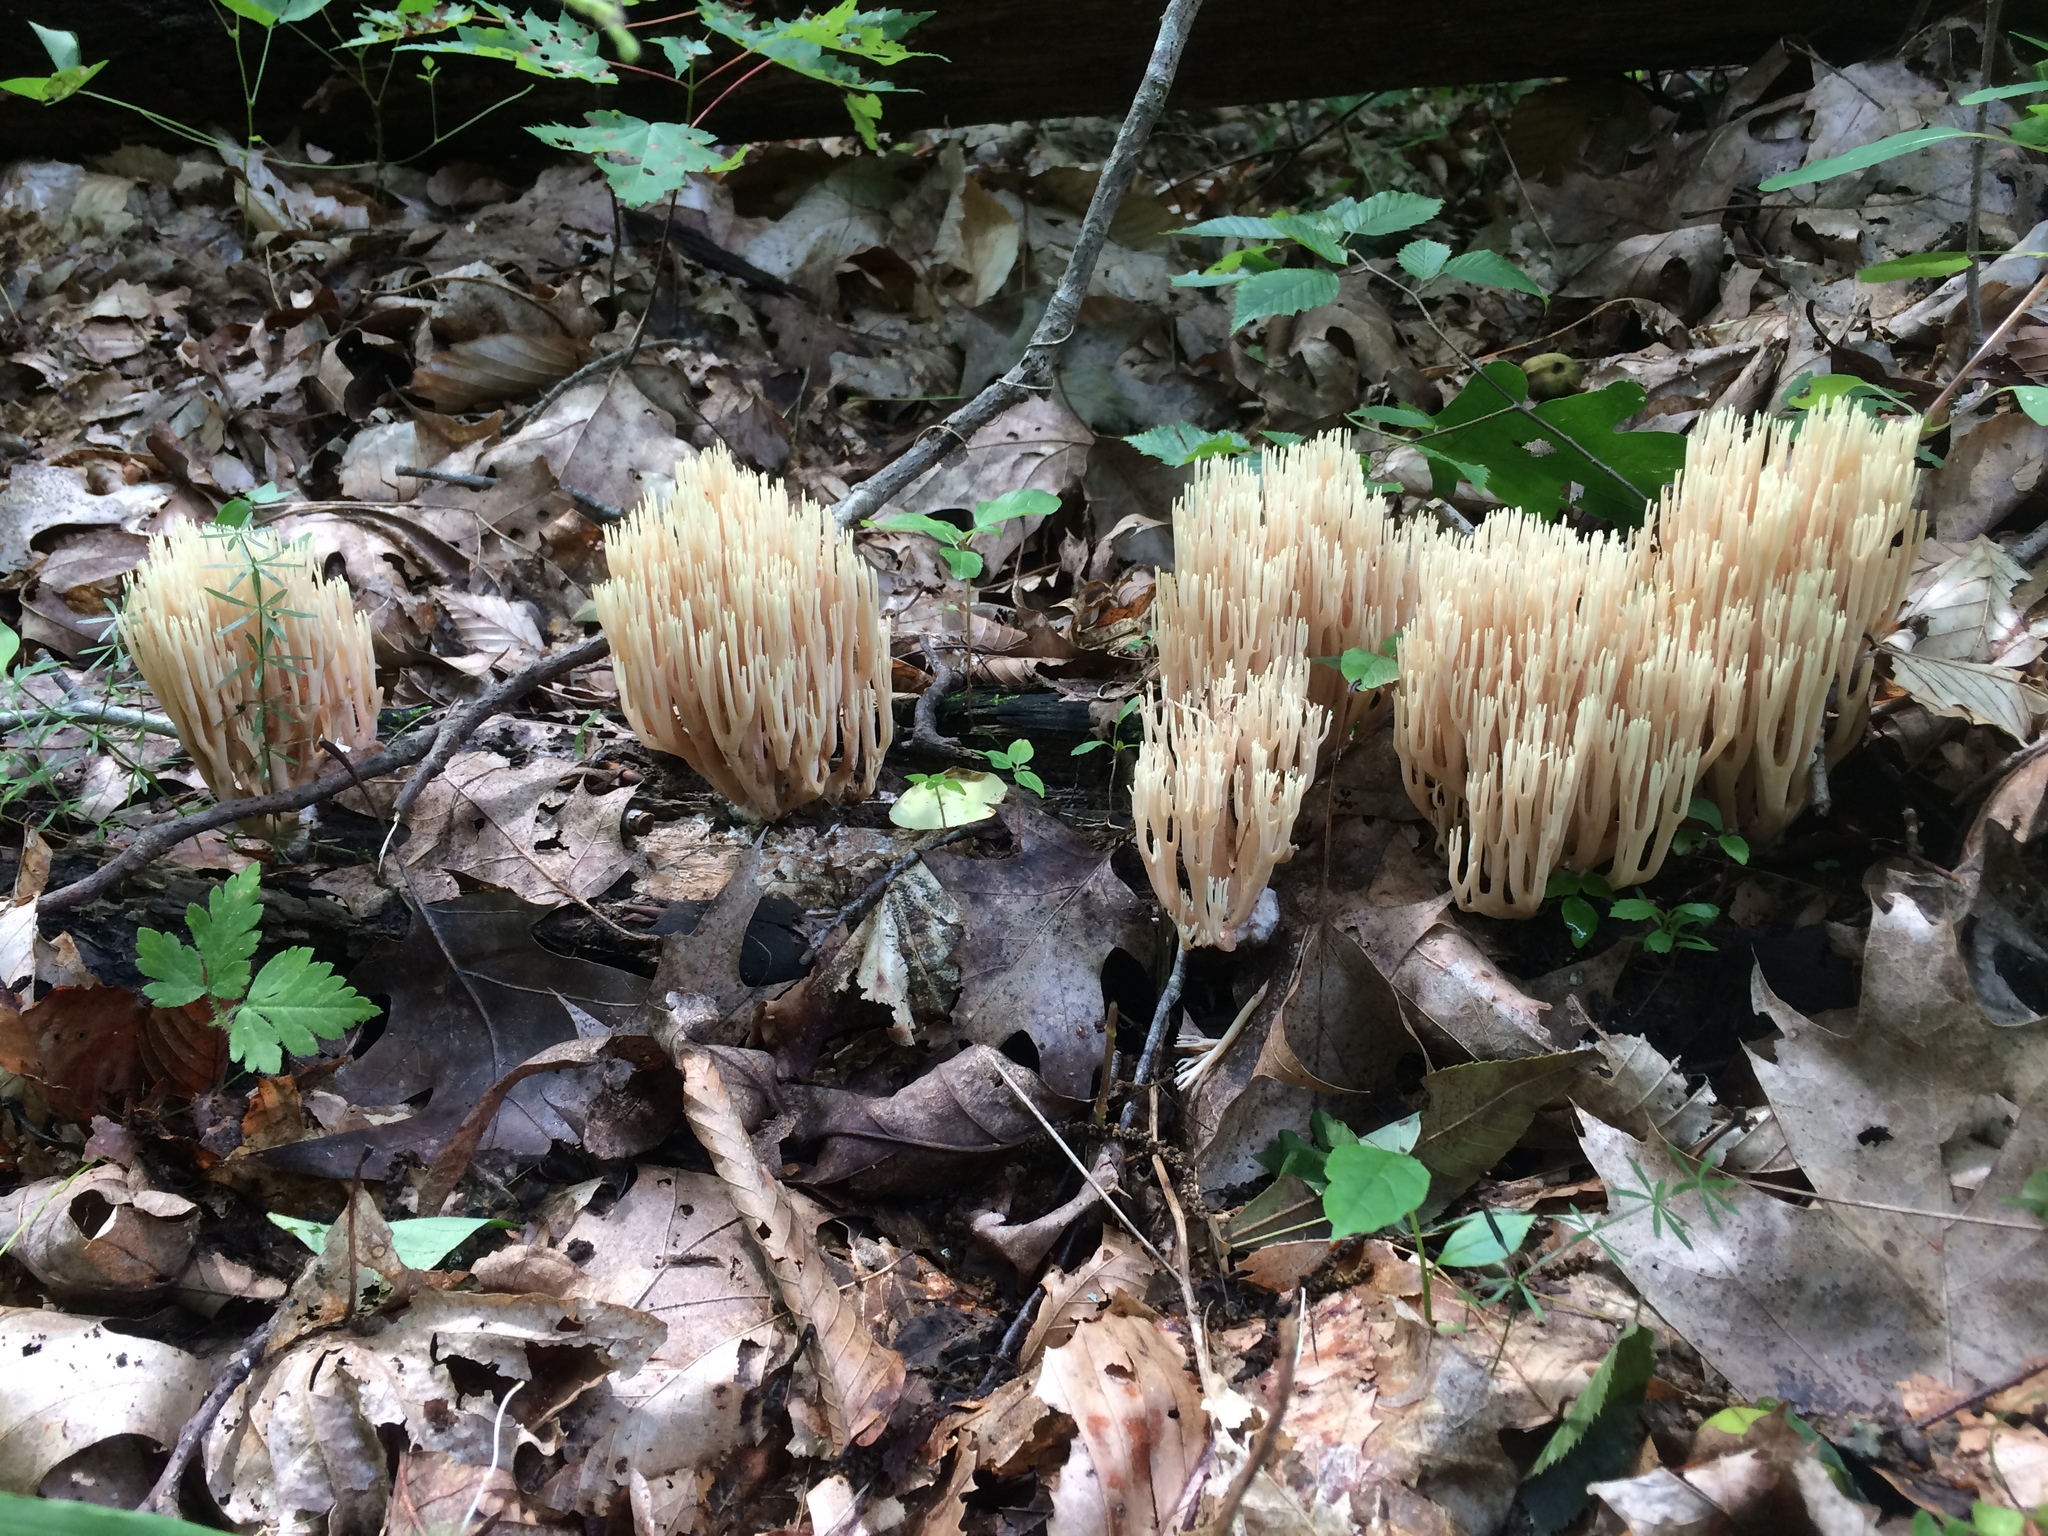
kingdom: Fungi
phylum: Basidiomycota
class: Agaricomycetes
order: Gomphales
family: Gomphaceae
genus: Ramaria
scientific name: Ramaria stricta
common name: Upright coral
